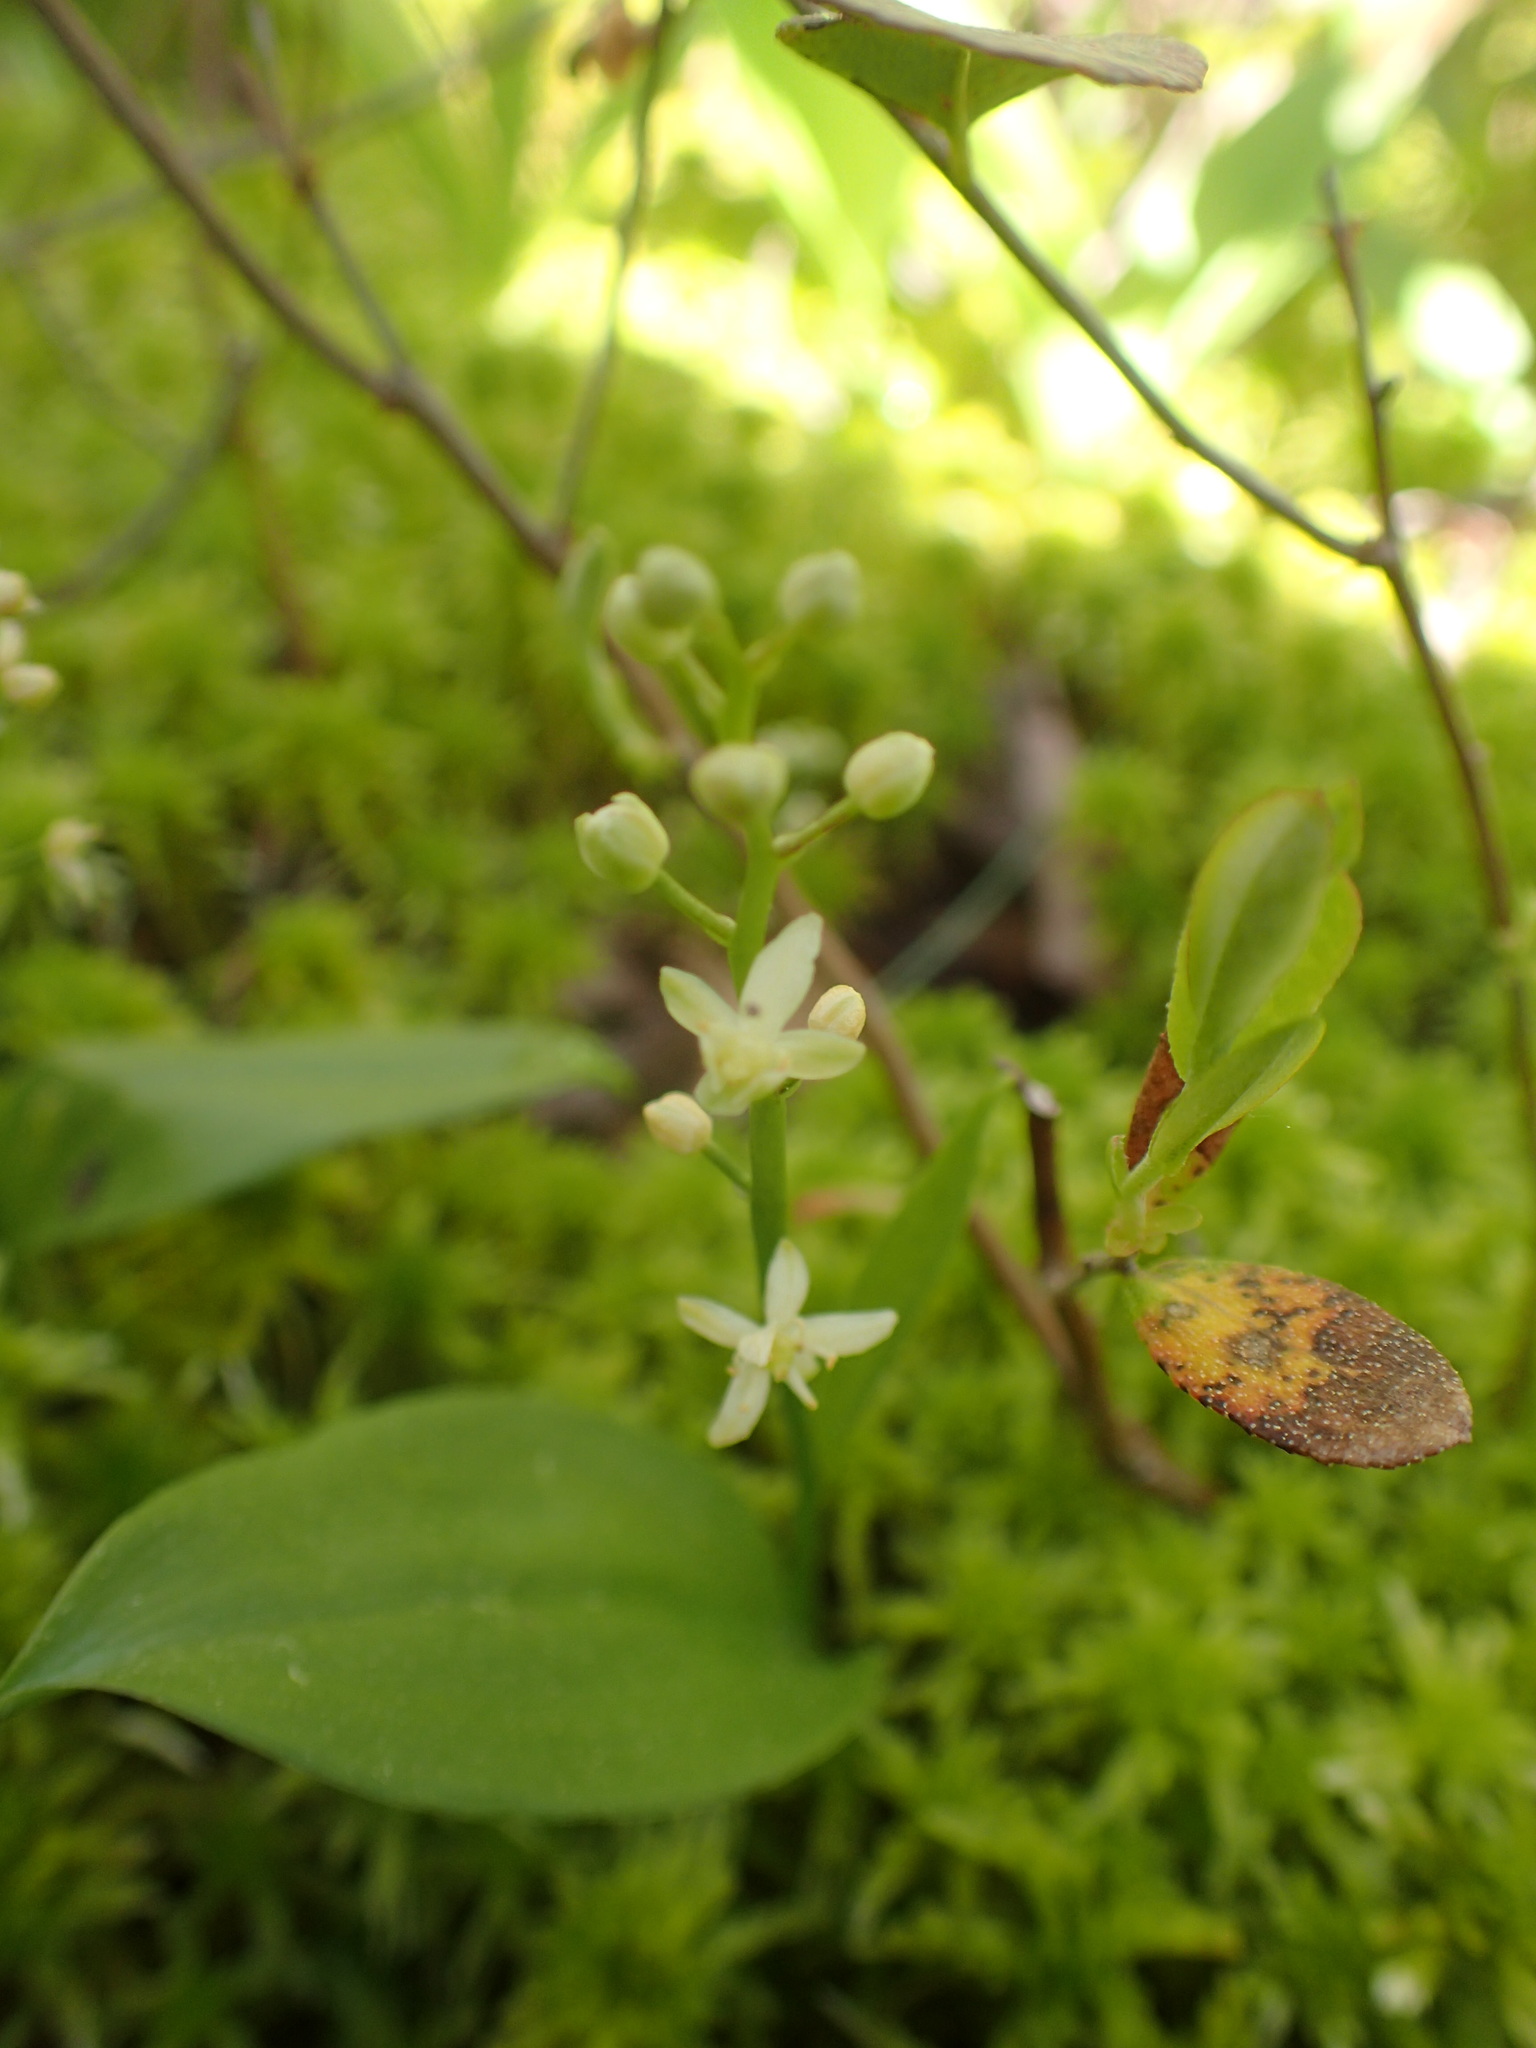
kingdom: Plantae
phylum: Tracheophyta
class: Liliopsida
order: Asparagales
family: Asparagaceae
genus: Maianthemum
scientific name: Maianthemum trifolium
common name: Swamp false solomon's seal
